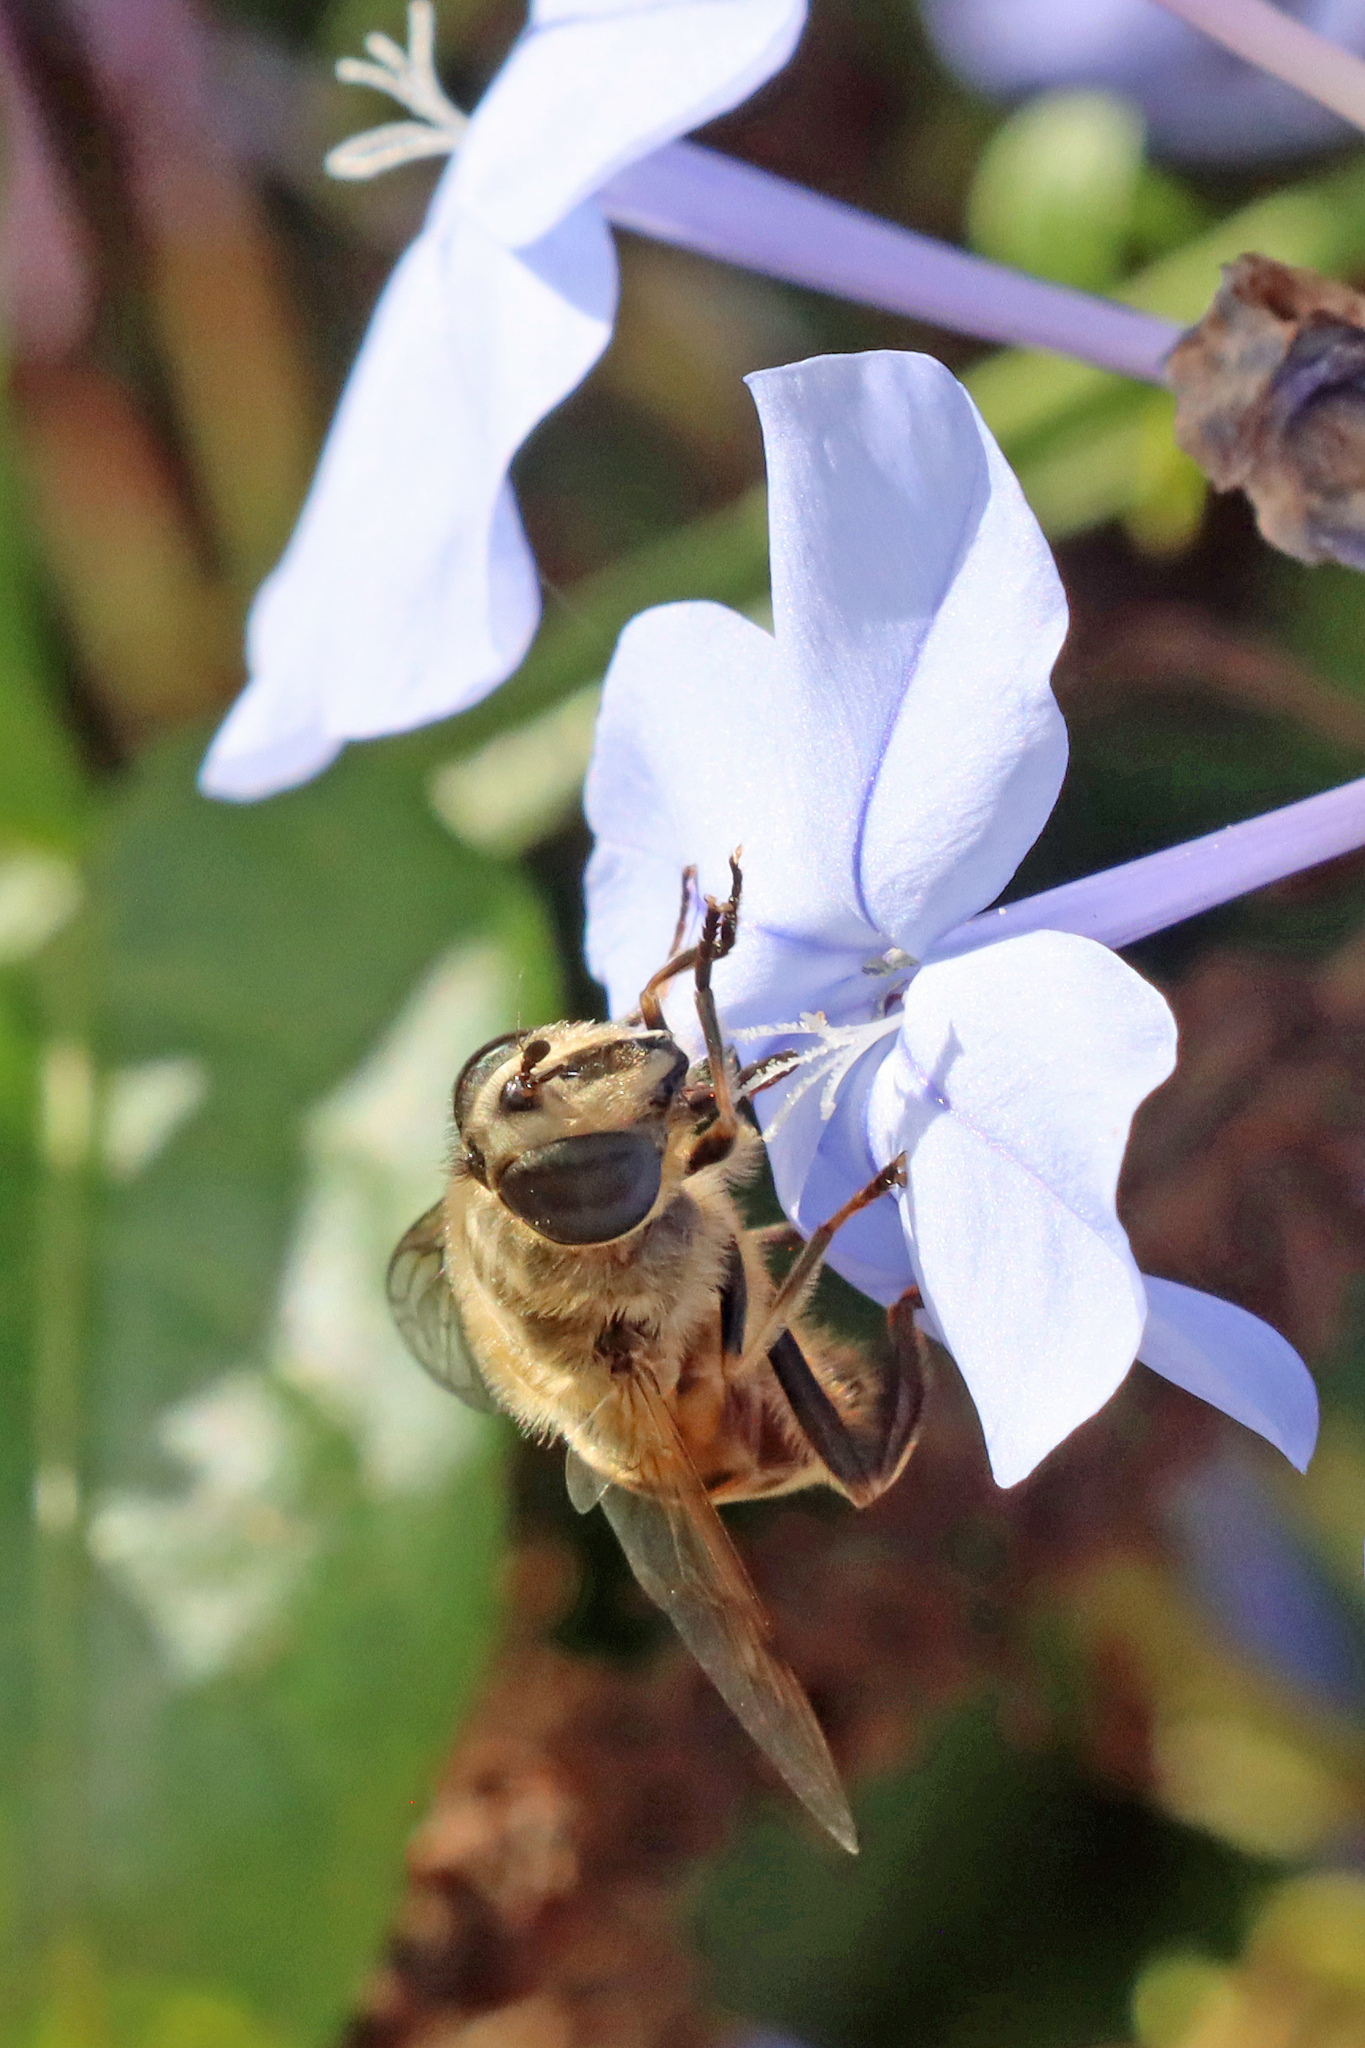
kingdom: Animalia
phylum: Arthropoda
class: Insecta
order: Diptera
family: Syrphidae
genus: Eristalis
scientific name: Eristalis tenax
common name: Drone fly
